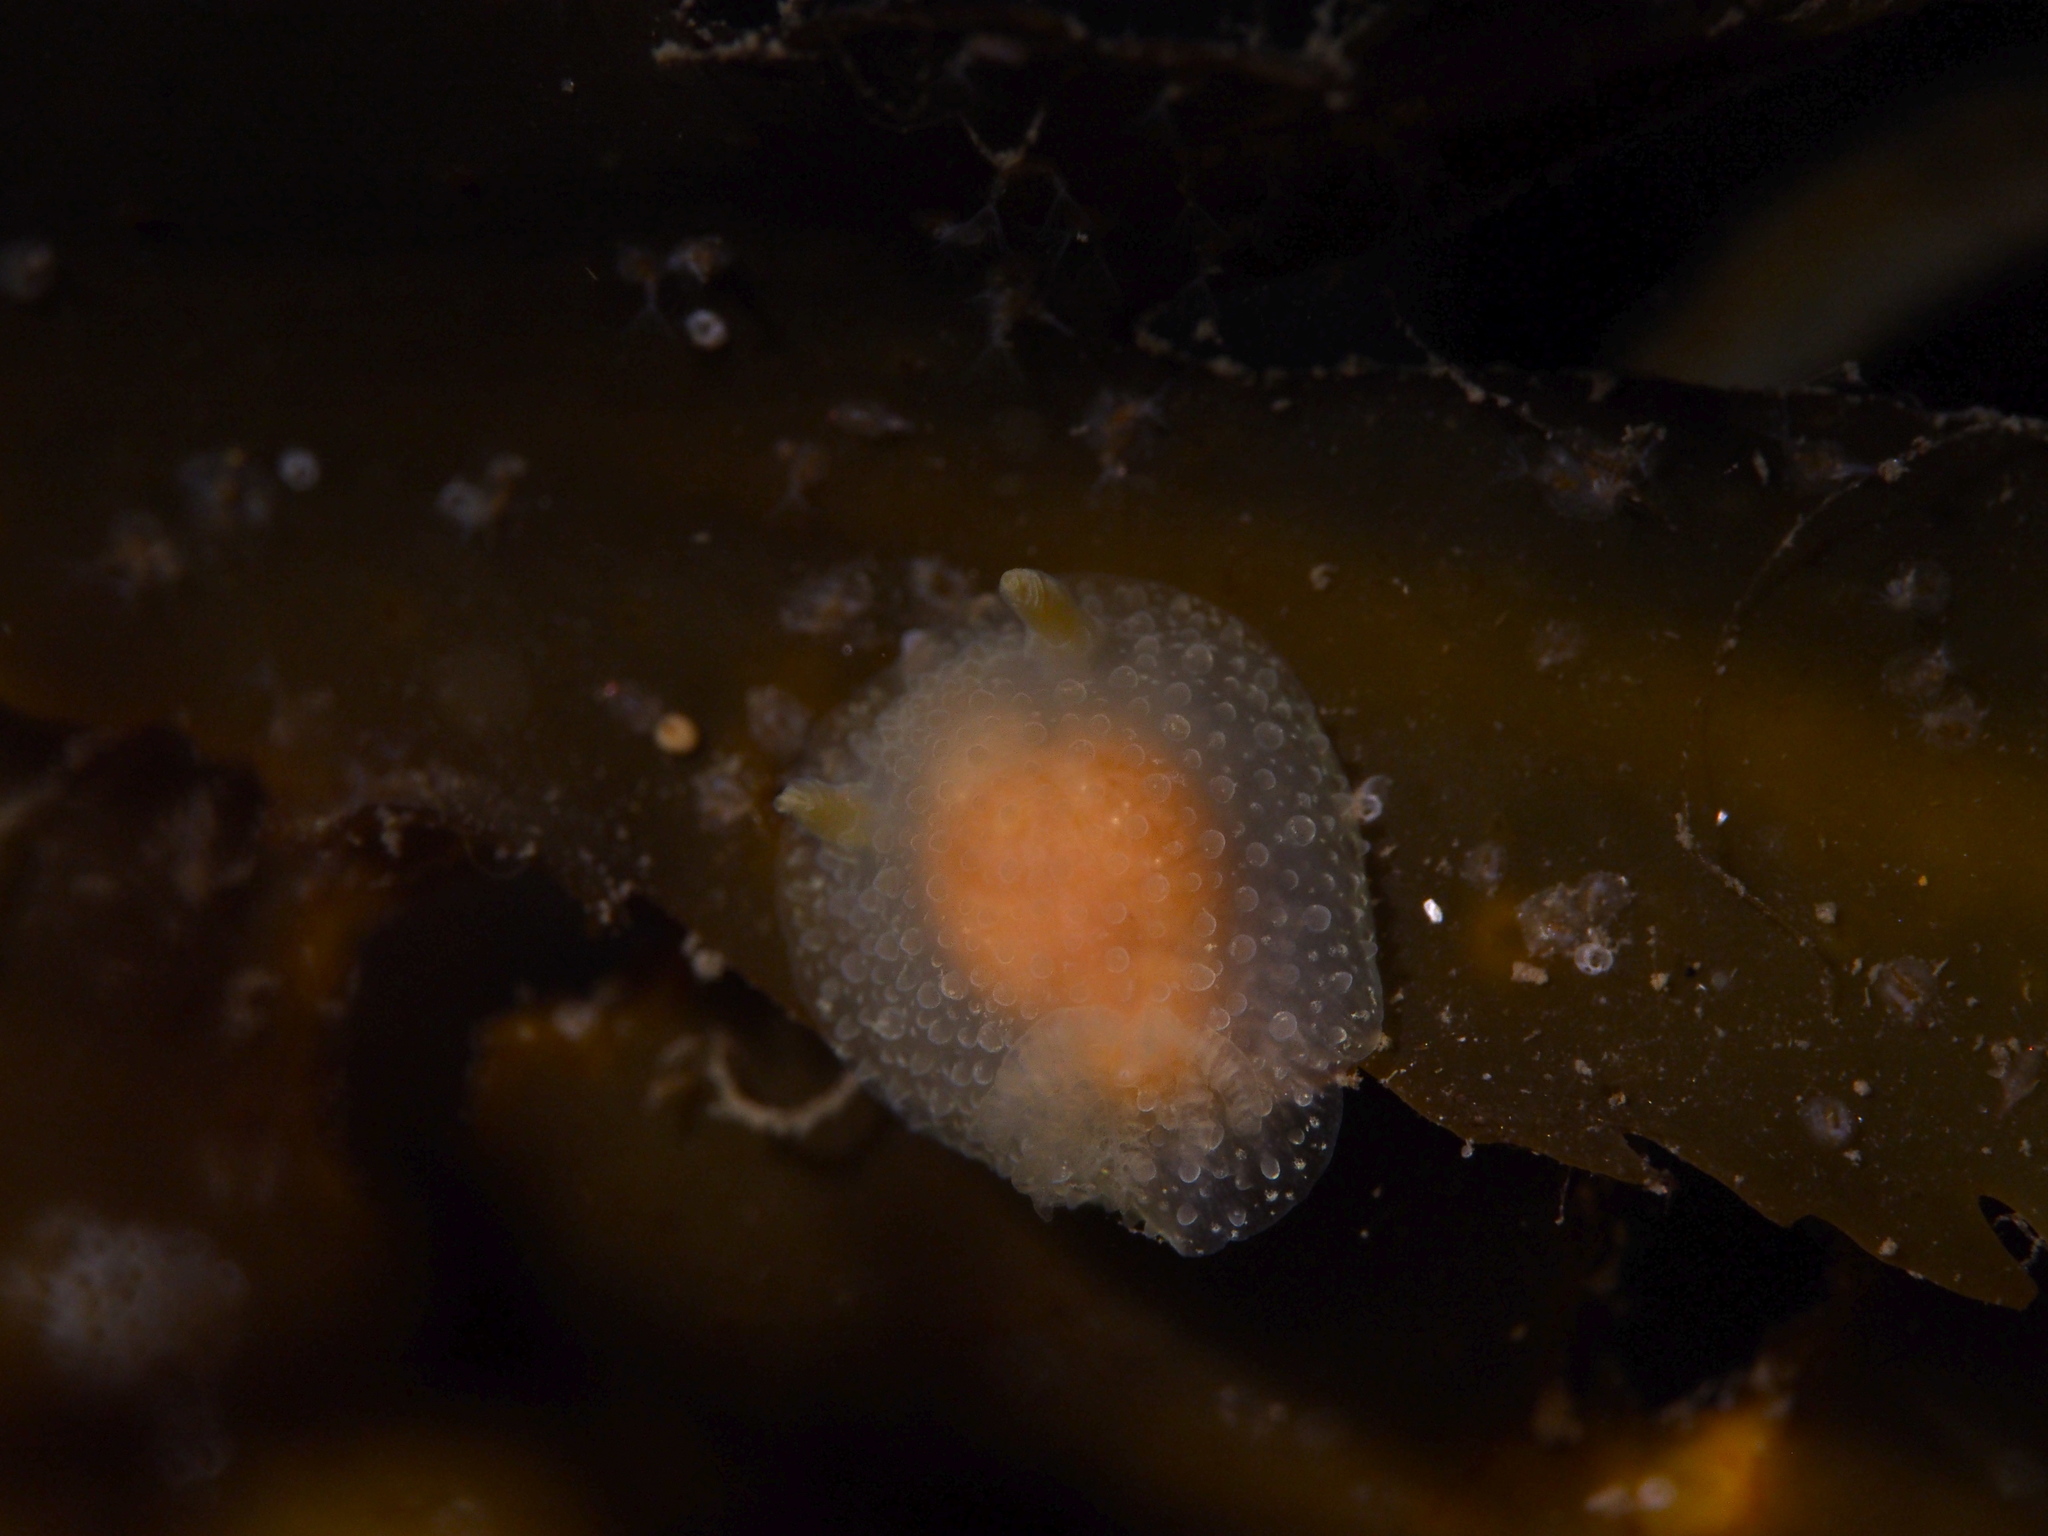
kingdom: Animalia
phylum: Mollusca
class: Gastropoda
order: Nudibranchia
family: Onchidorididae
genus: Acanthodoris
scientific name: Acanthodoris pilosa
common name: Hairy spiny doris
